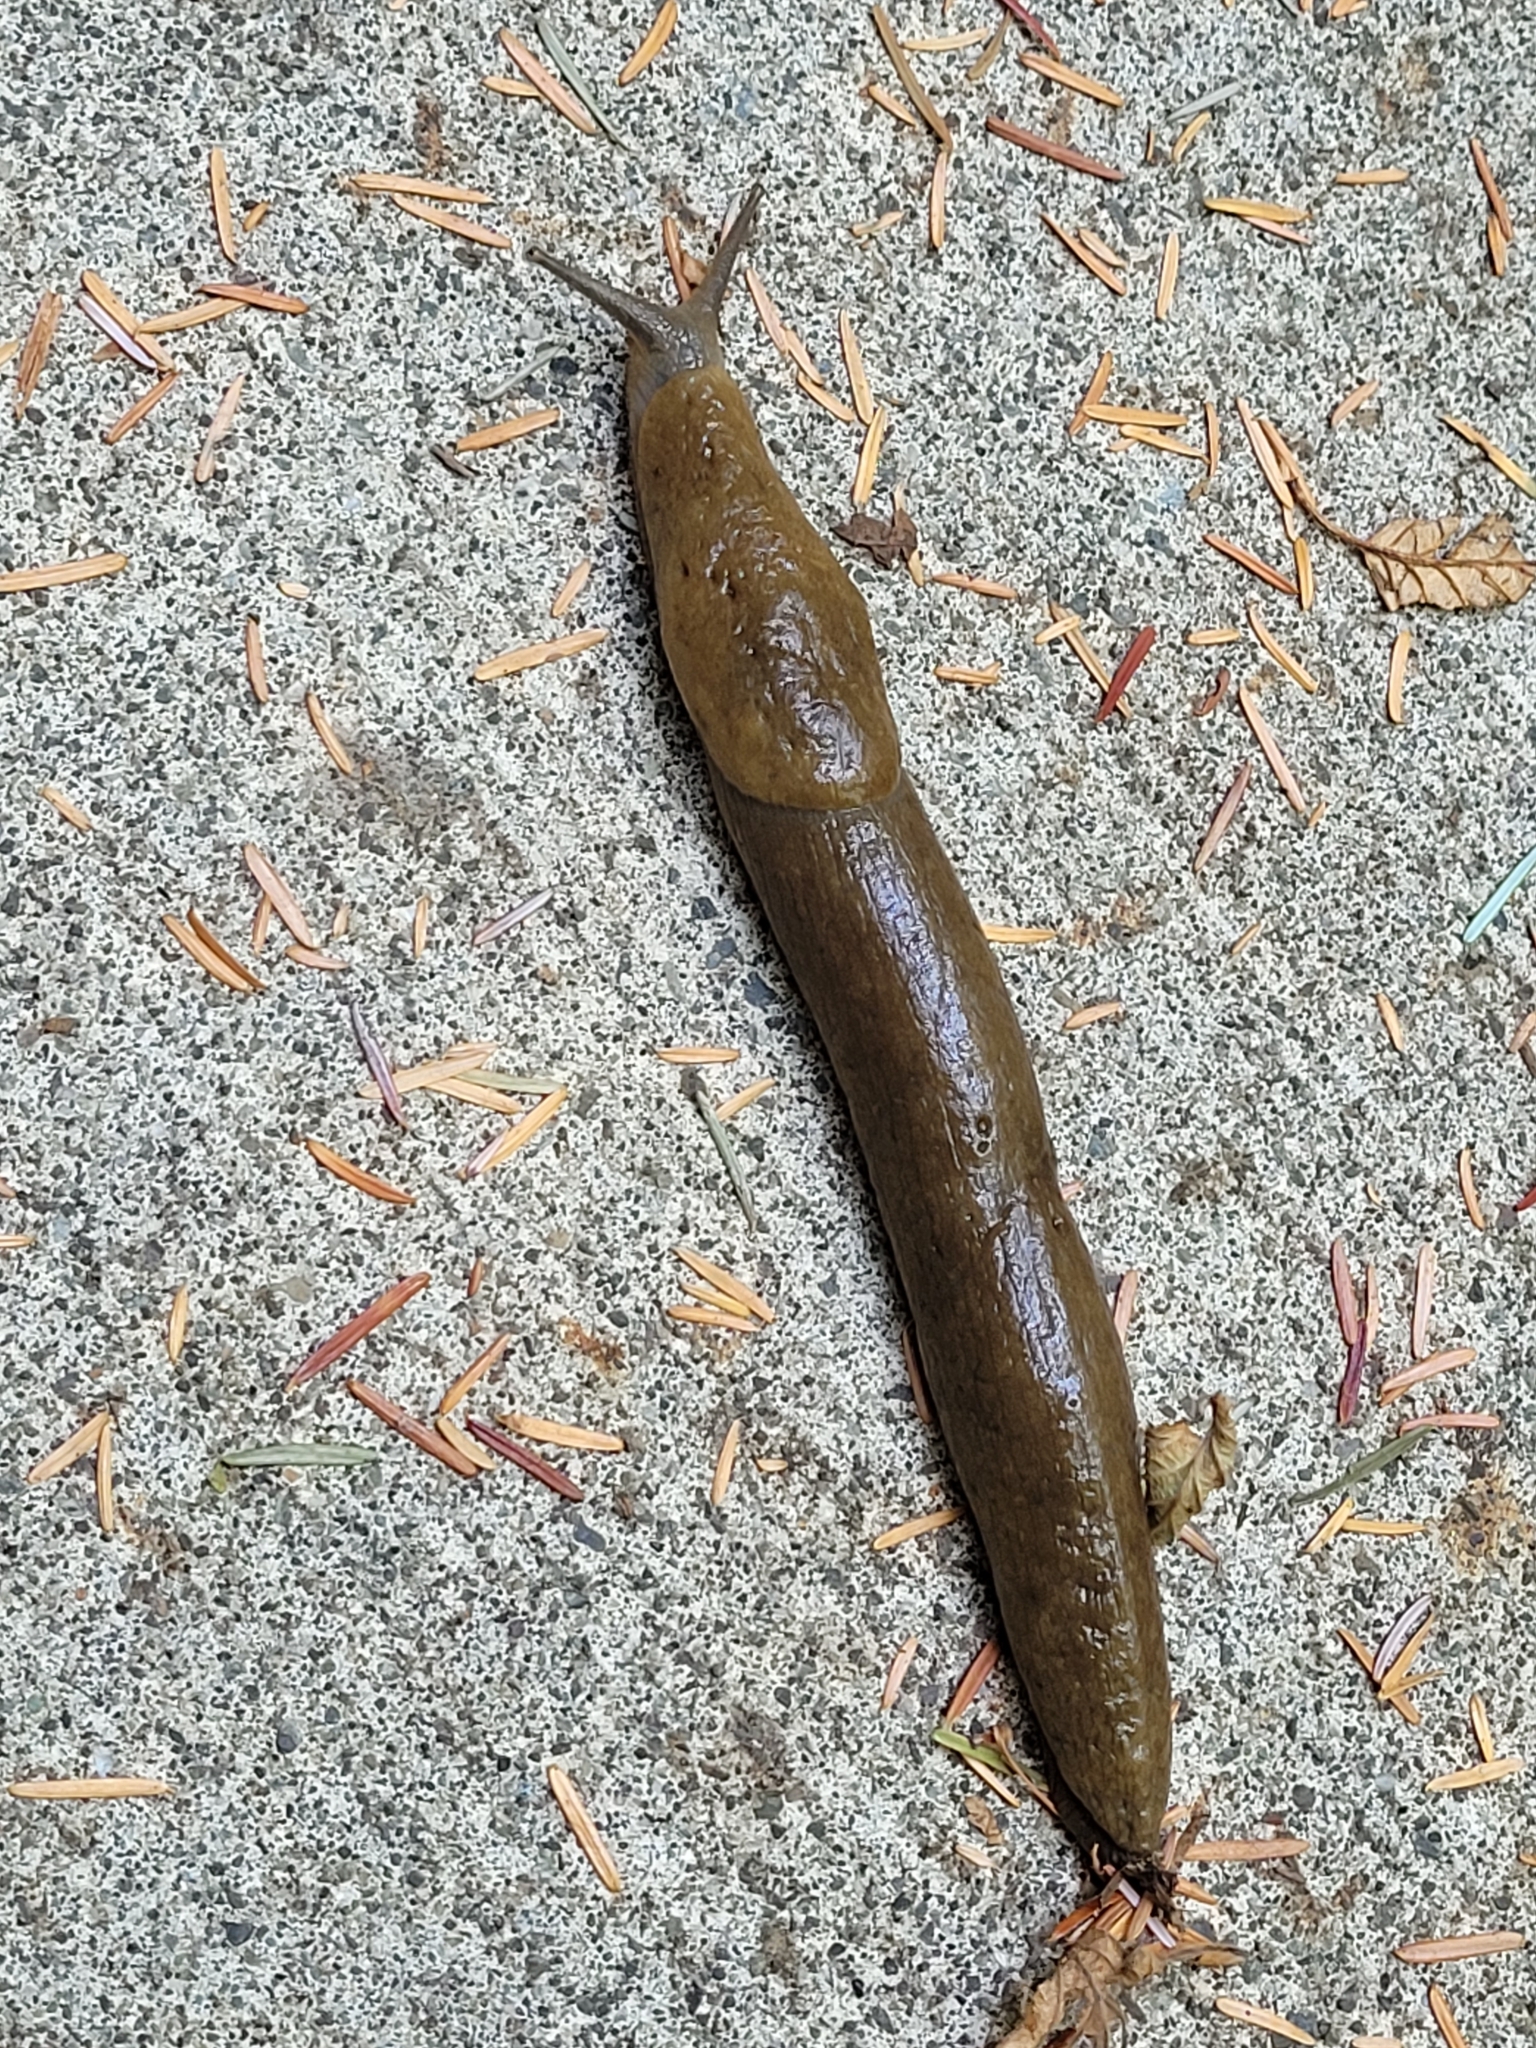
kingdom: Animalia
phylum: Mollusca
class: Gastropoda
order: Stylommatophora
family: Ariolimacidae
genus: Ariolimax
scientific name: Ariolimax columbianus
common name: Pacific banana slug
